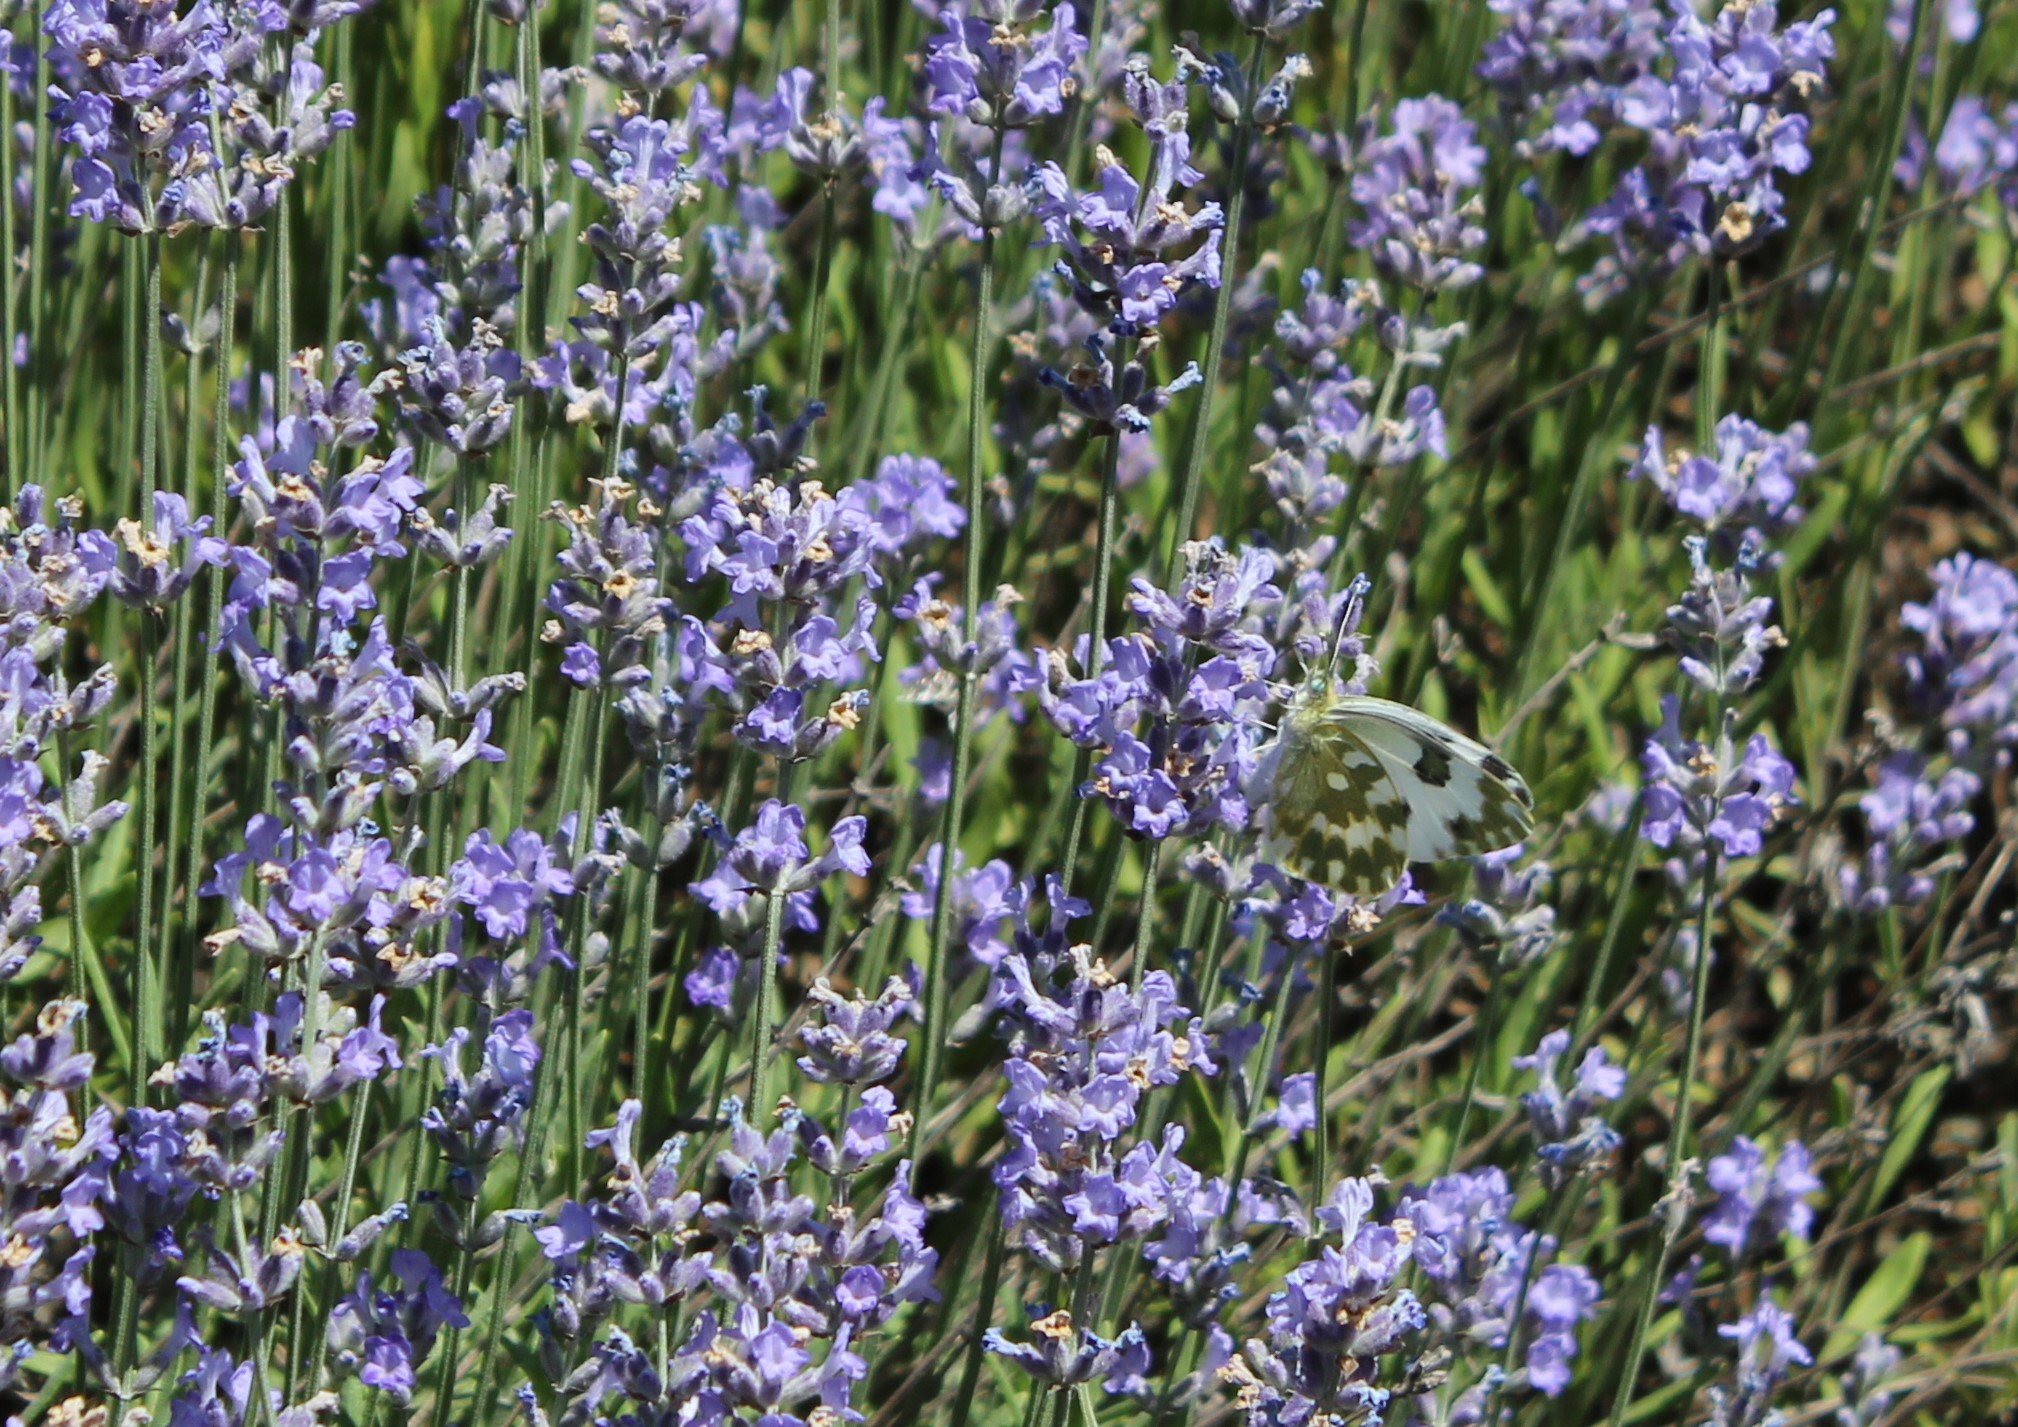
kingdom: Animalia
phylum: Arthropoda
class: Insecta
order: Lepidoptera
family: Pieridae
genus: Pontia
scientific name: Pontia edusa
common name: Eastern bath white
